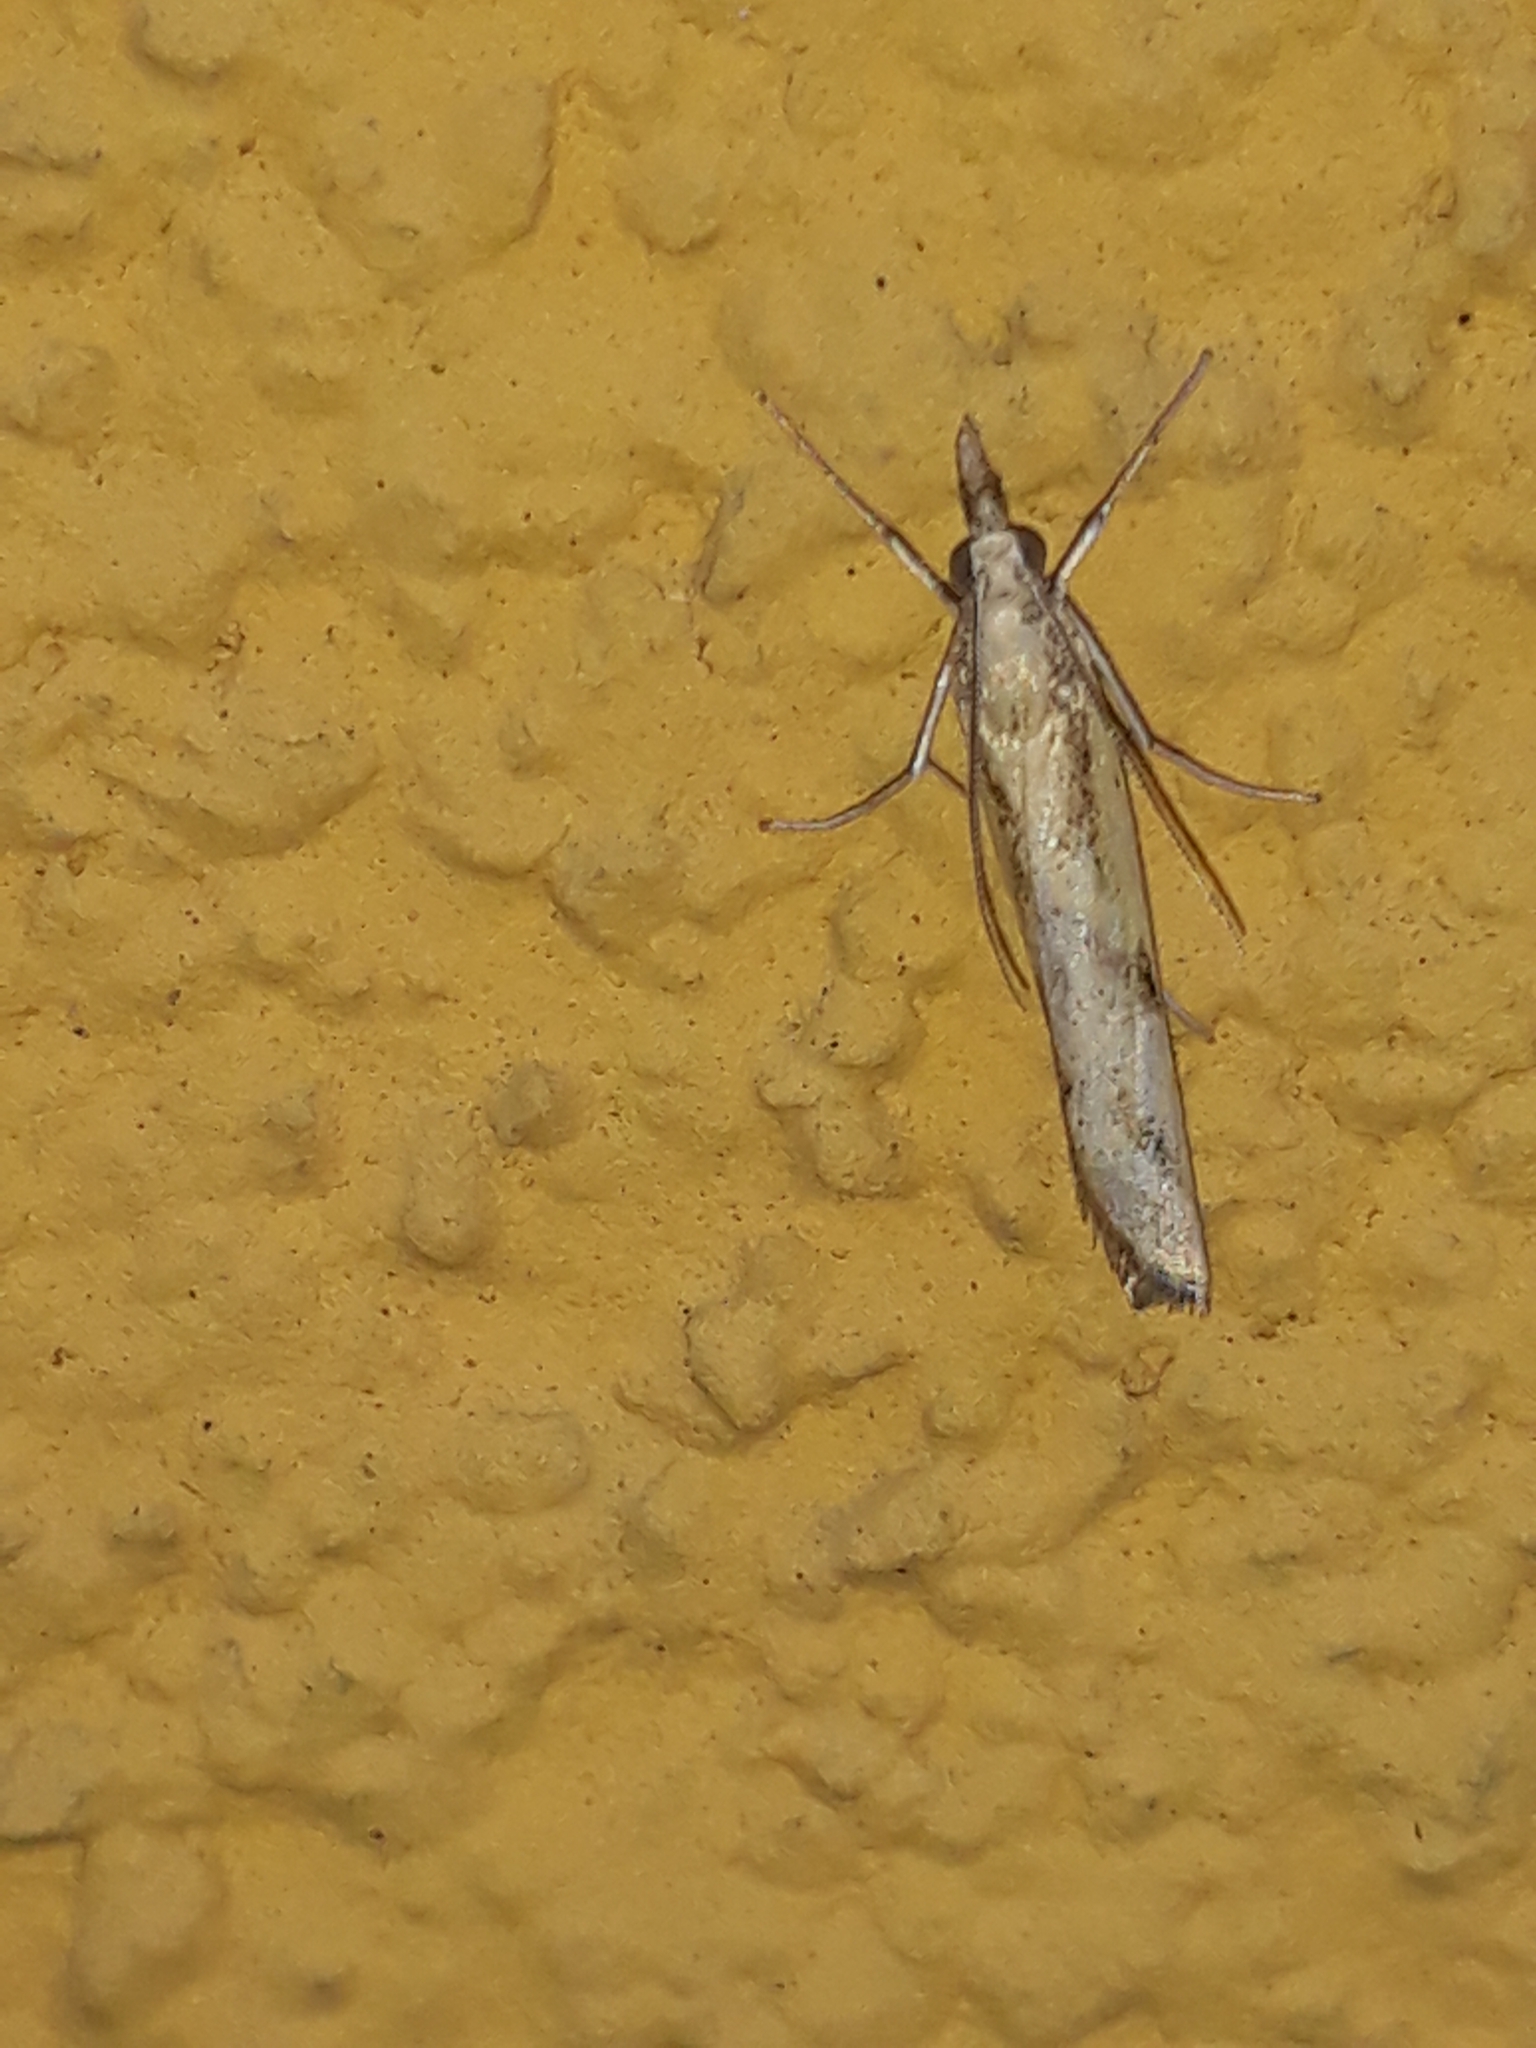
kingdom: Animalia
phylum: Arthropoda
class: Insecta
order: Lepidoptera
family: Crambidae
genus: Agriphila
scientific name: Agriphila inquinatella
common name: Barred grass-veneer
